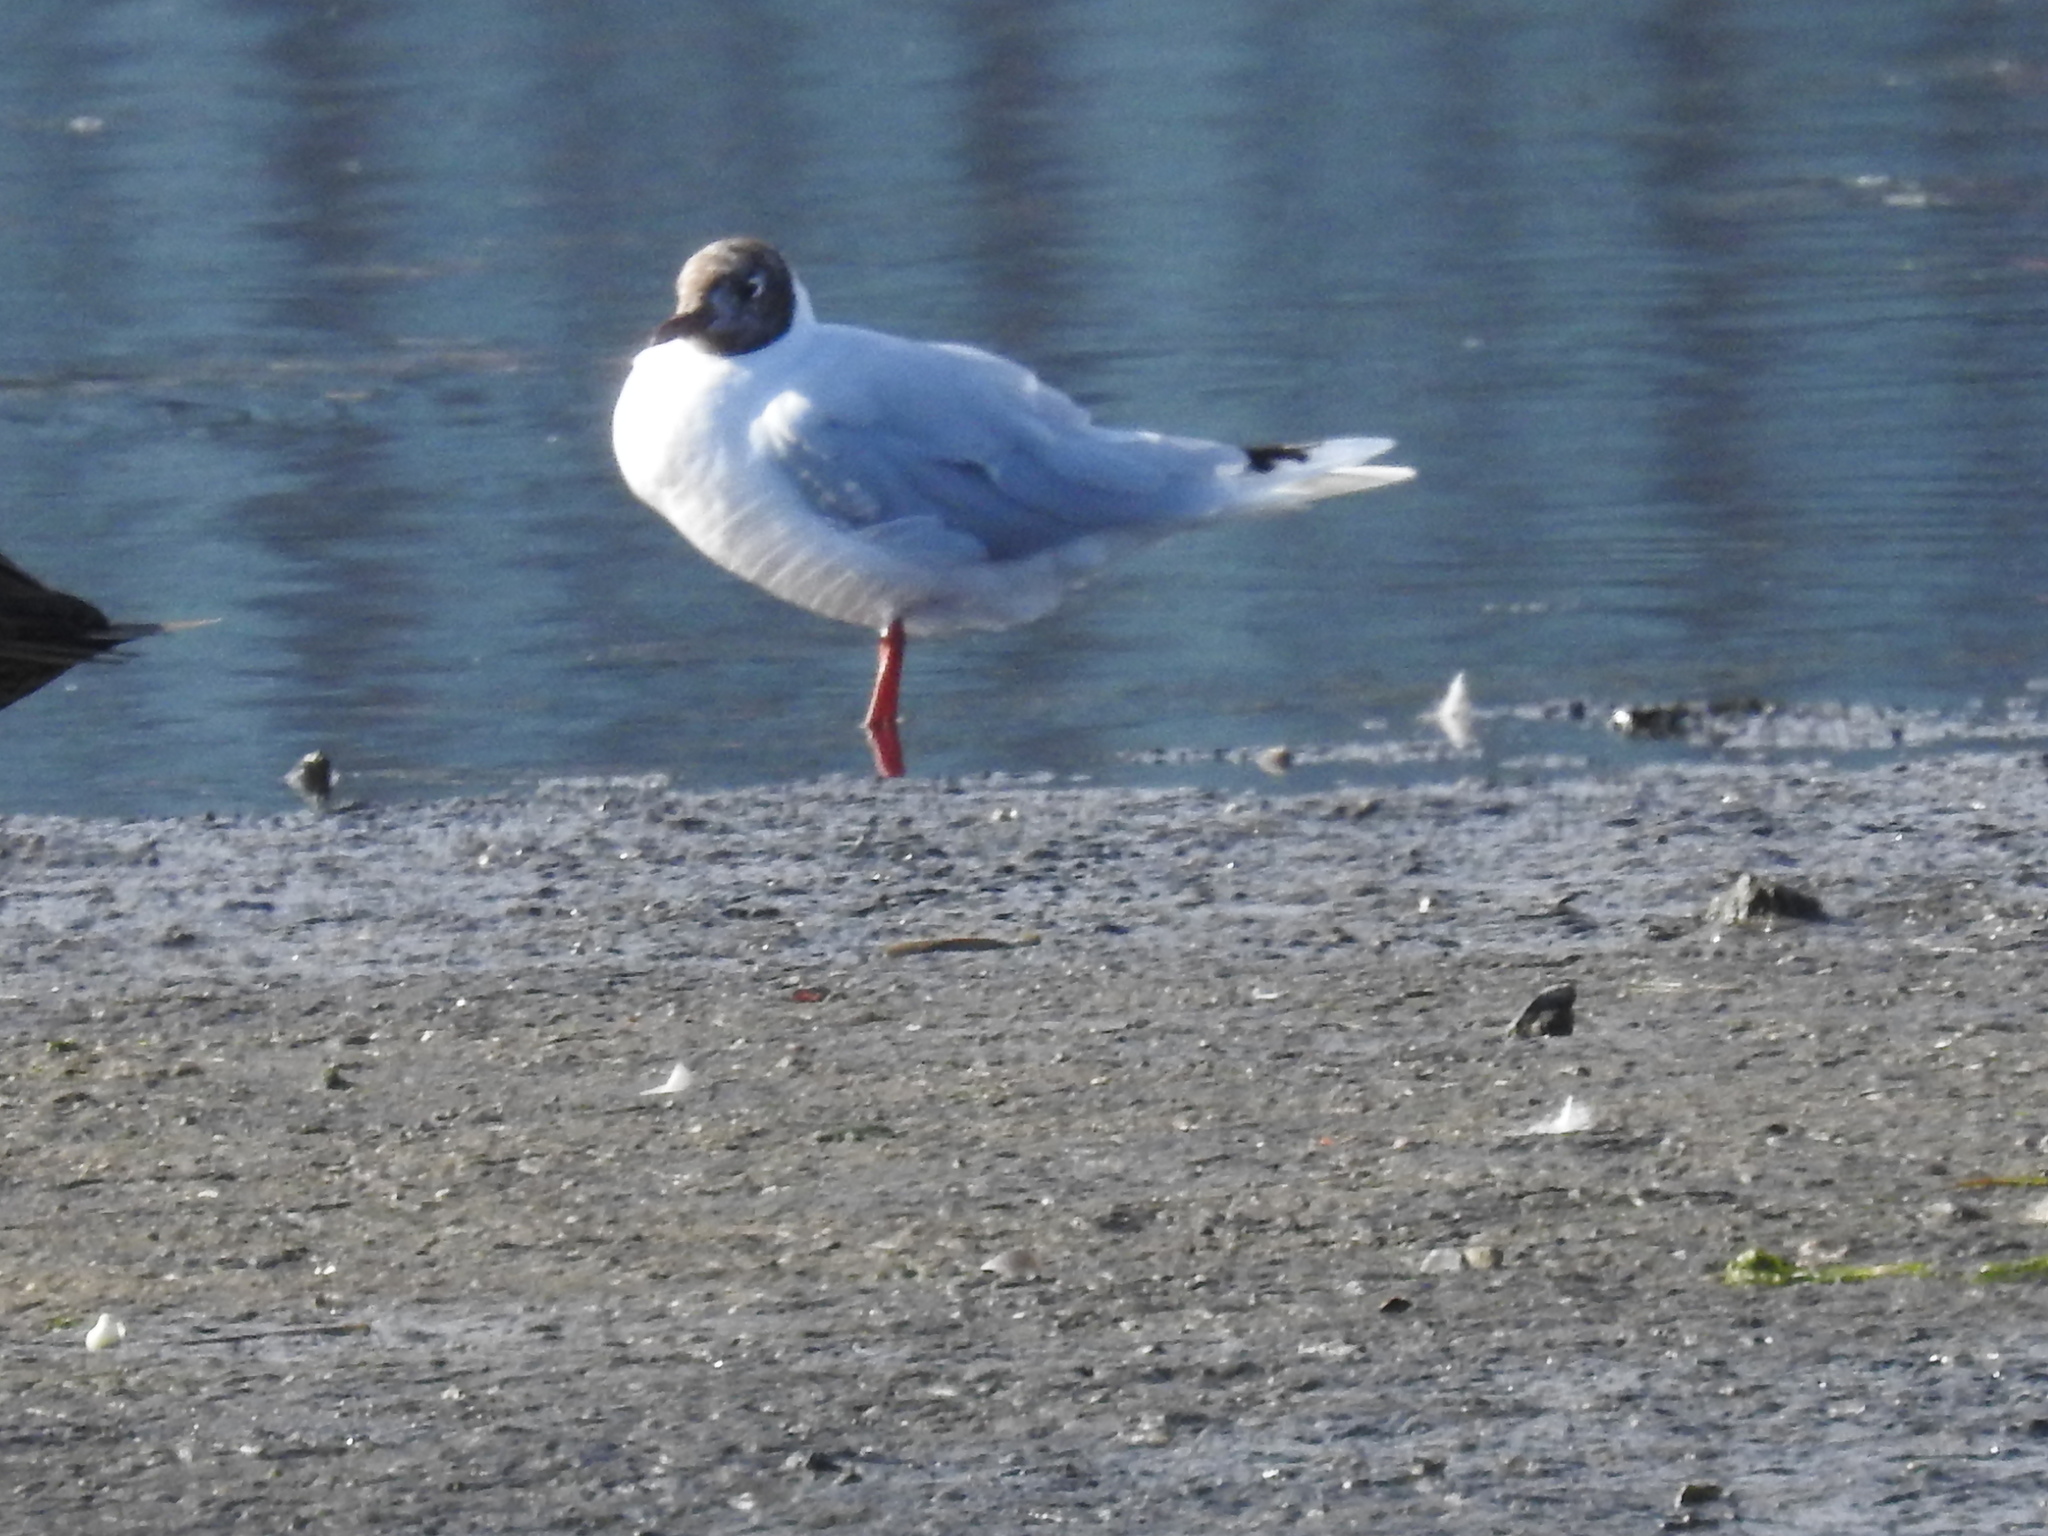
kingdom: Animalia
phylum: Chordata
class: Aves
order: Charadriiformes
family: Laridae
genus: Chroicocephalus
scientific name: Chroicocephalus maculipennis
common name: Brown-hooded gull
